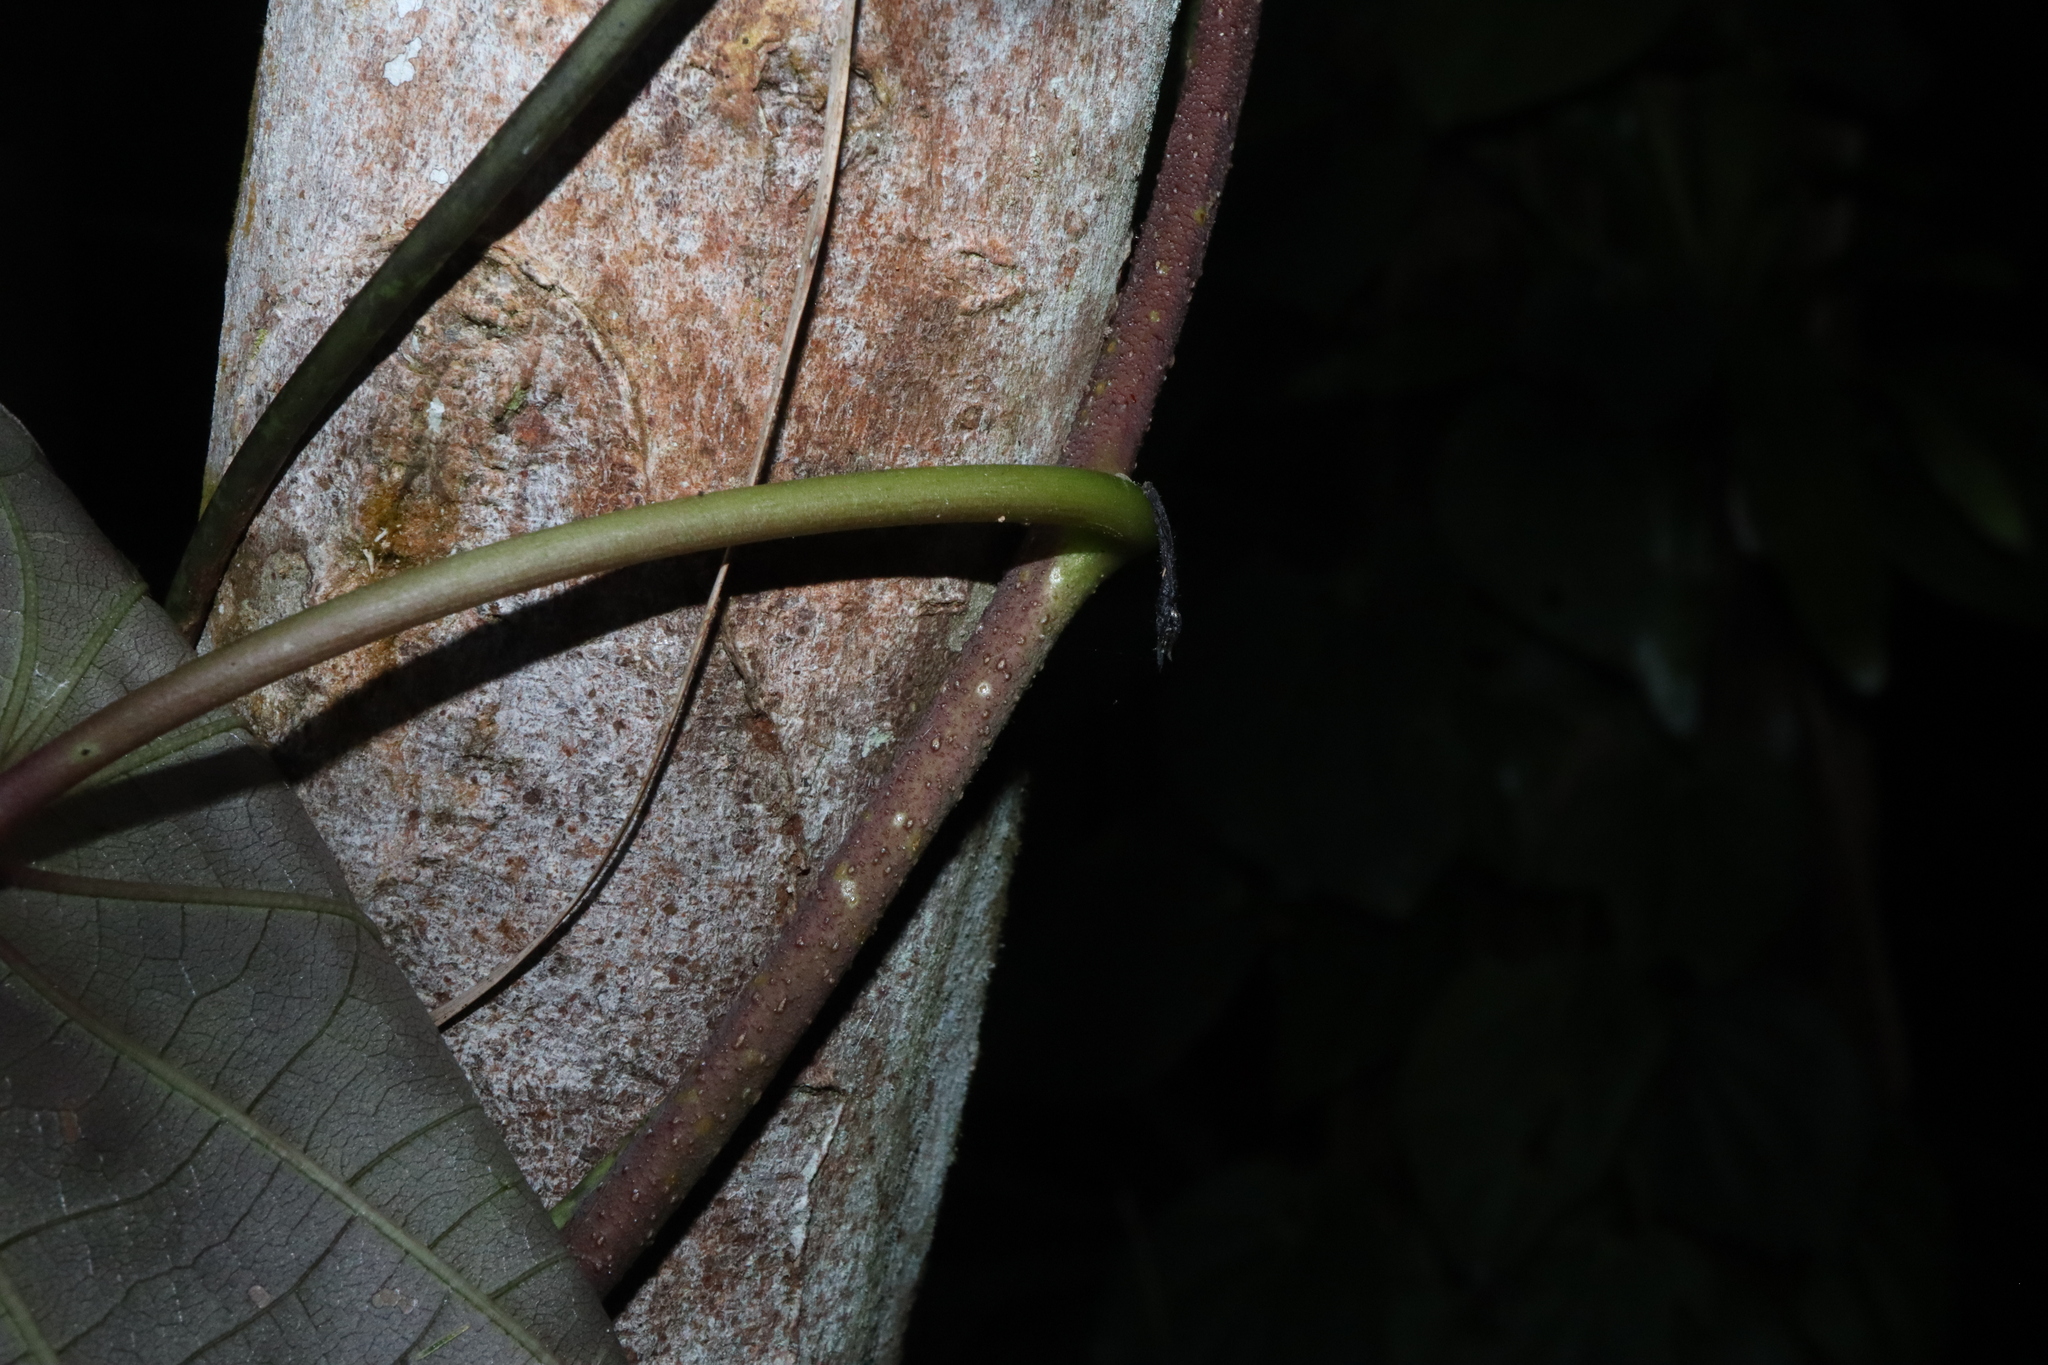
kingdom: Plantae
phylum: Tracheophyta
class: Magnoliopsida
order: Solanales
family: Convolvulaceae
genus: Decalobanthus
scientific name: Decalobanthus peltatus
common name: Merremia
